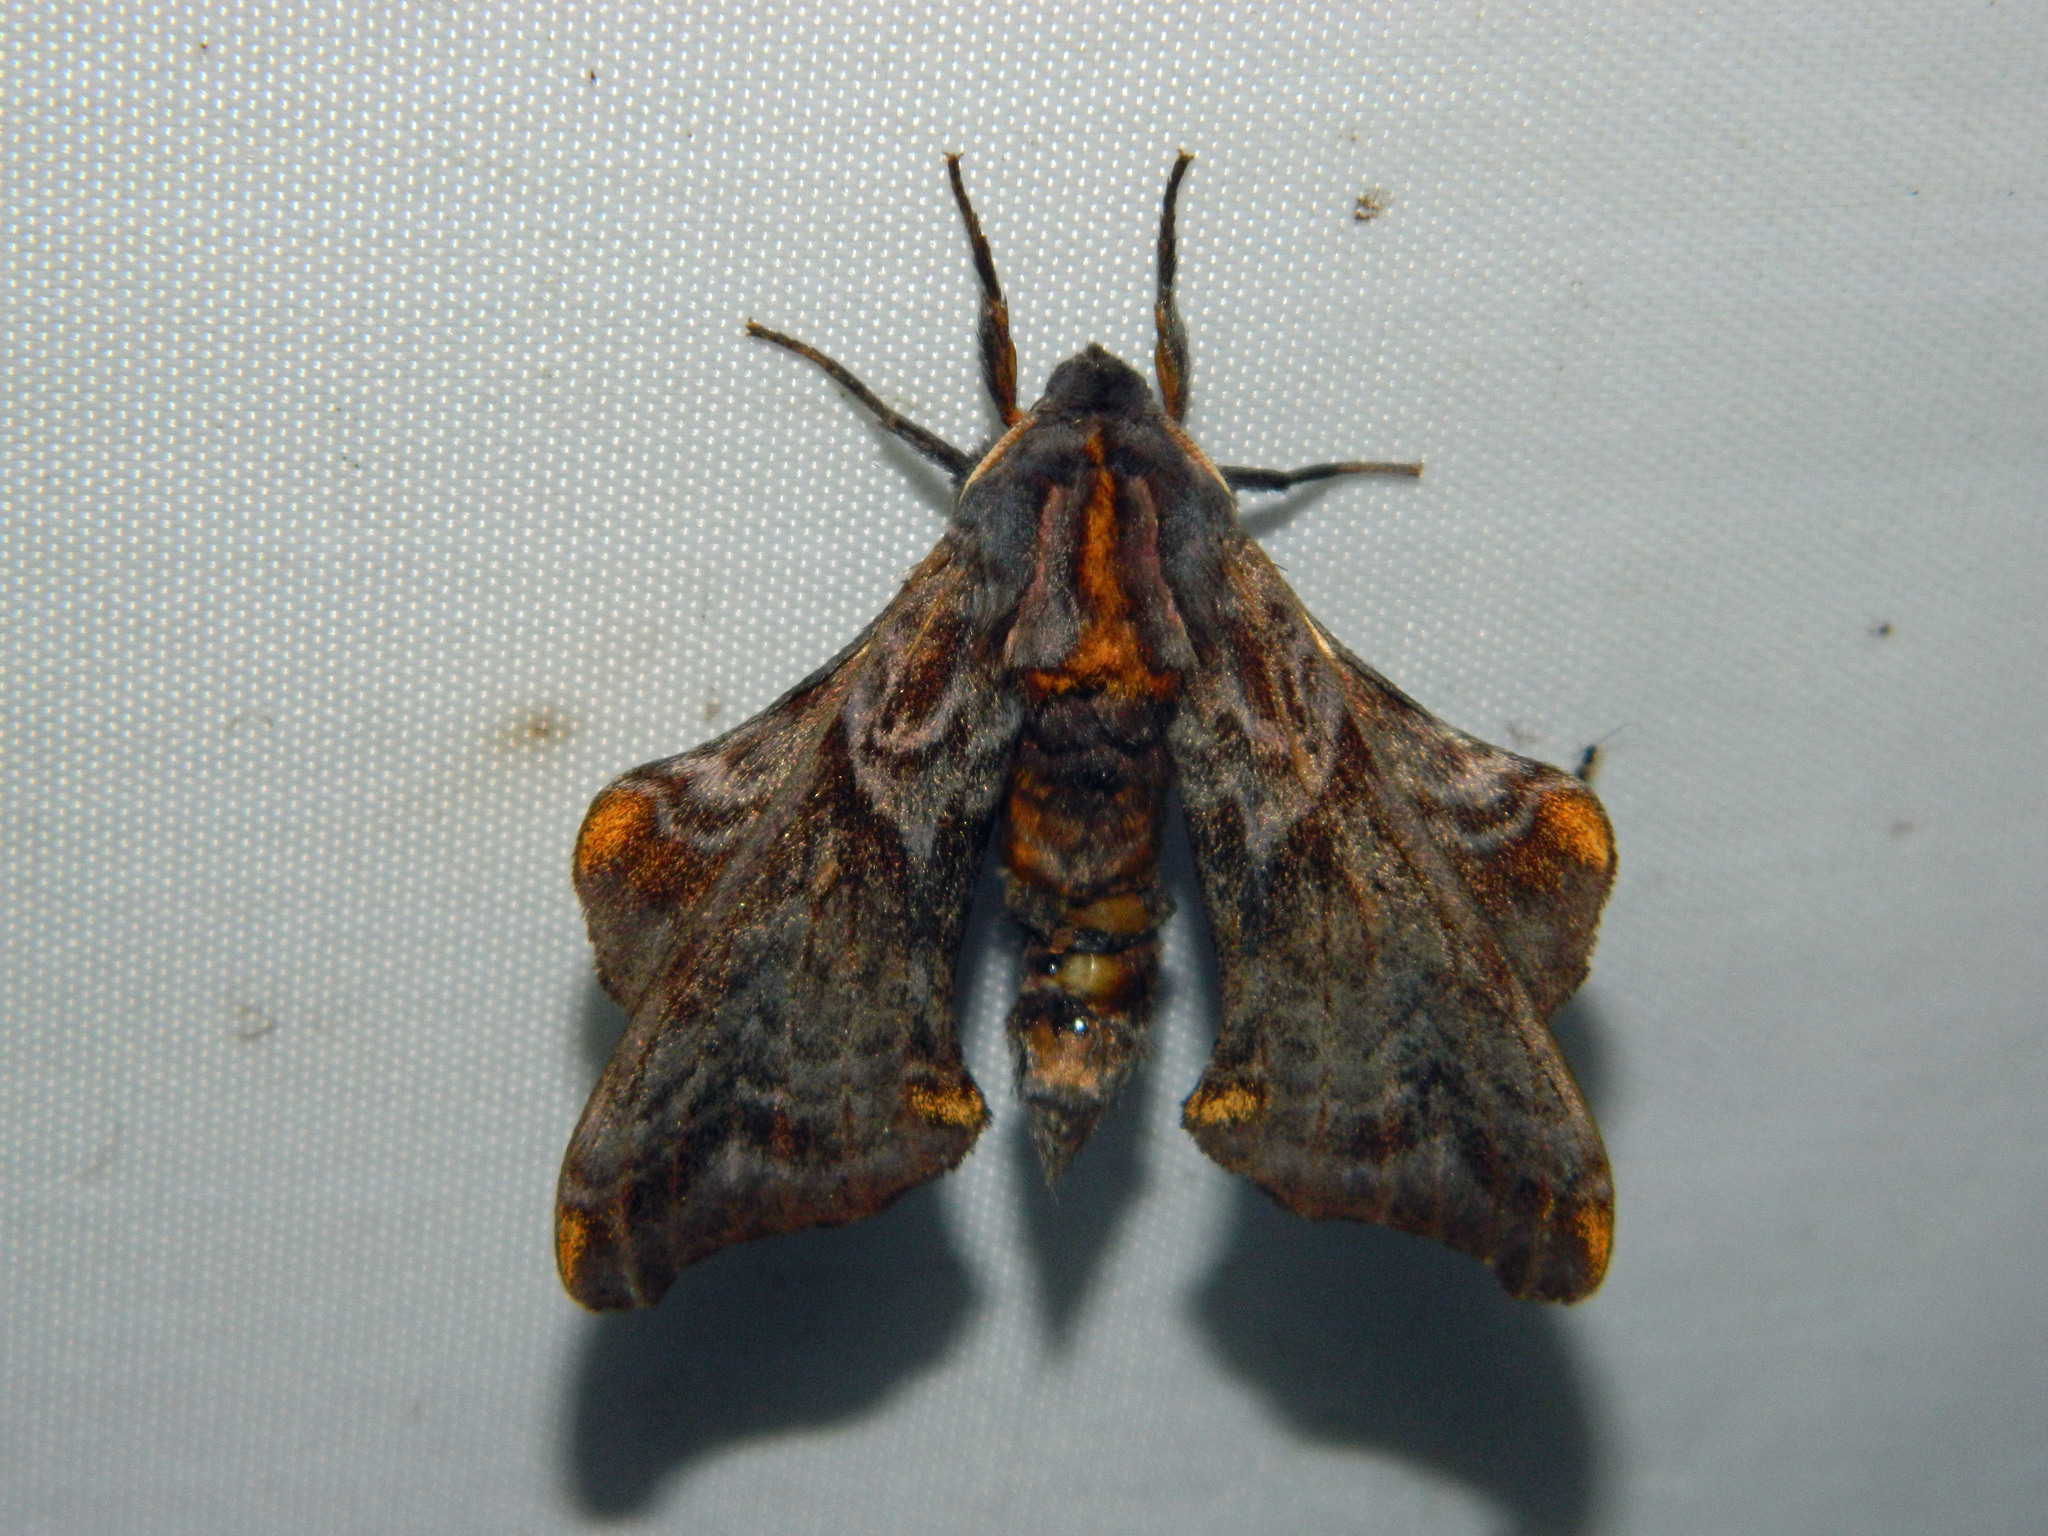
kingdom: Animalia
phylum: Arthropoda
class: Insecta
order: Lepidoptera
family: Sphingidae
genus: Paonias
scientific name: Paonias myops
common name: Small-eyed sphinx
